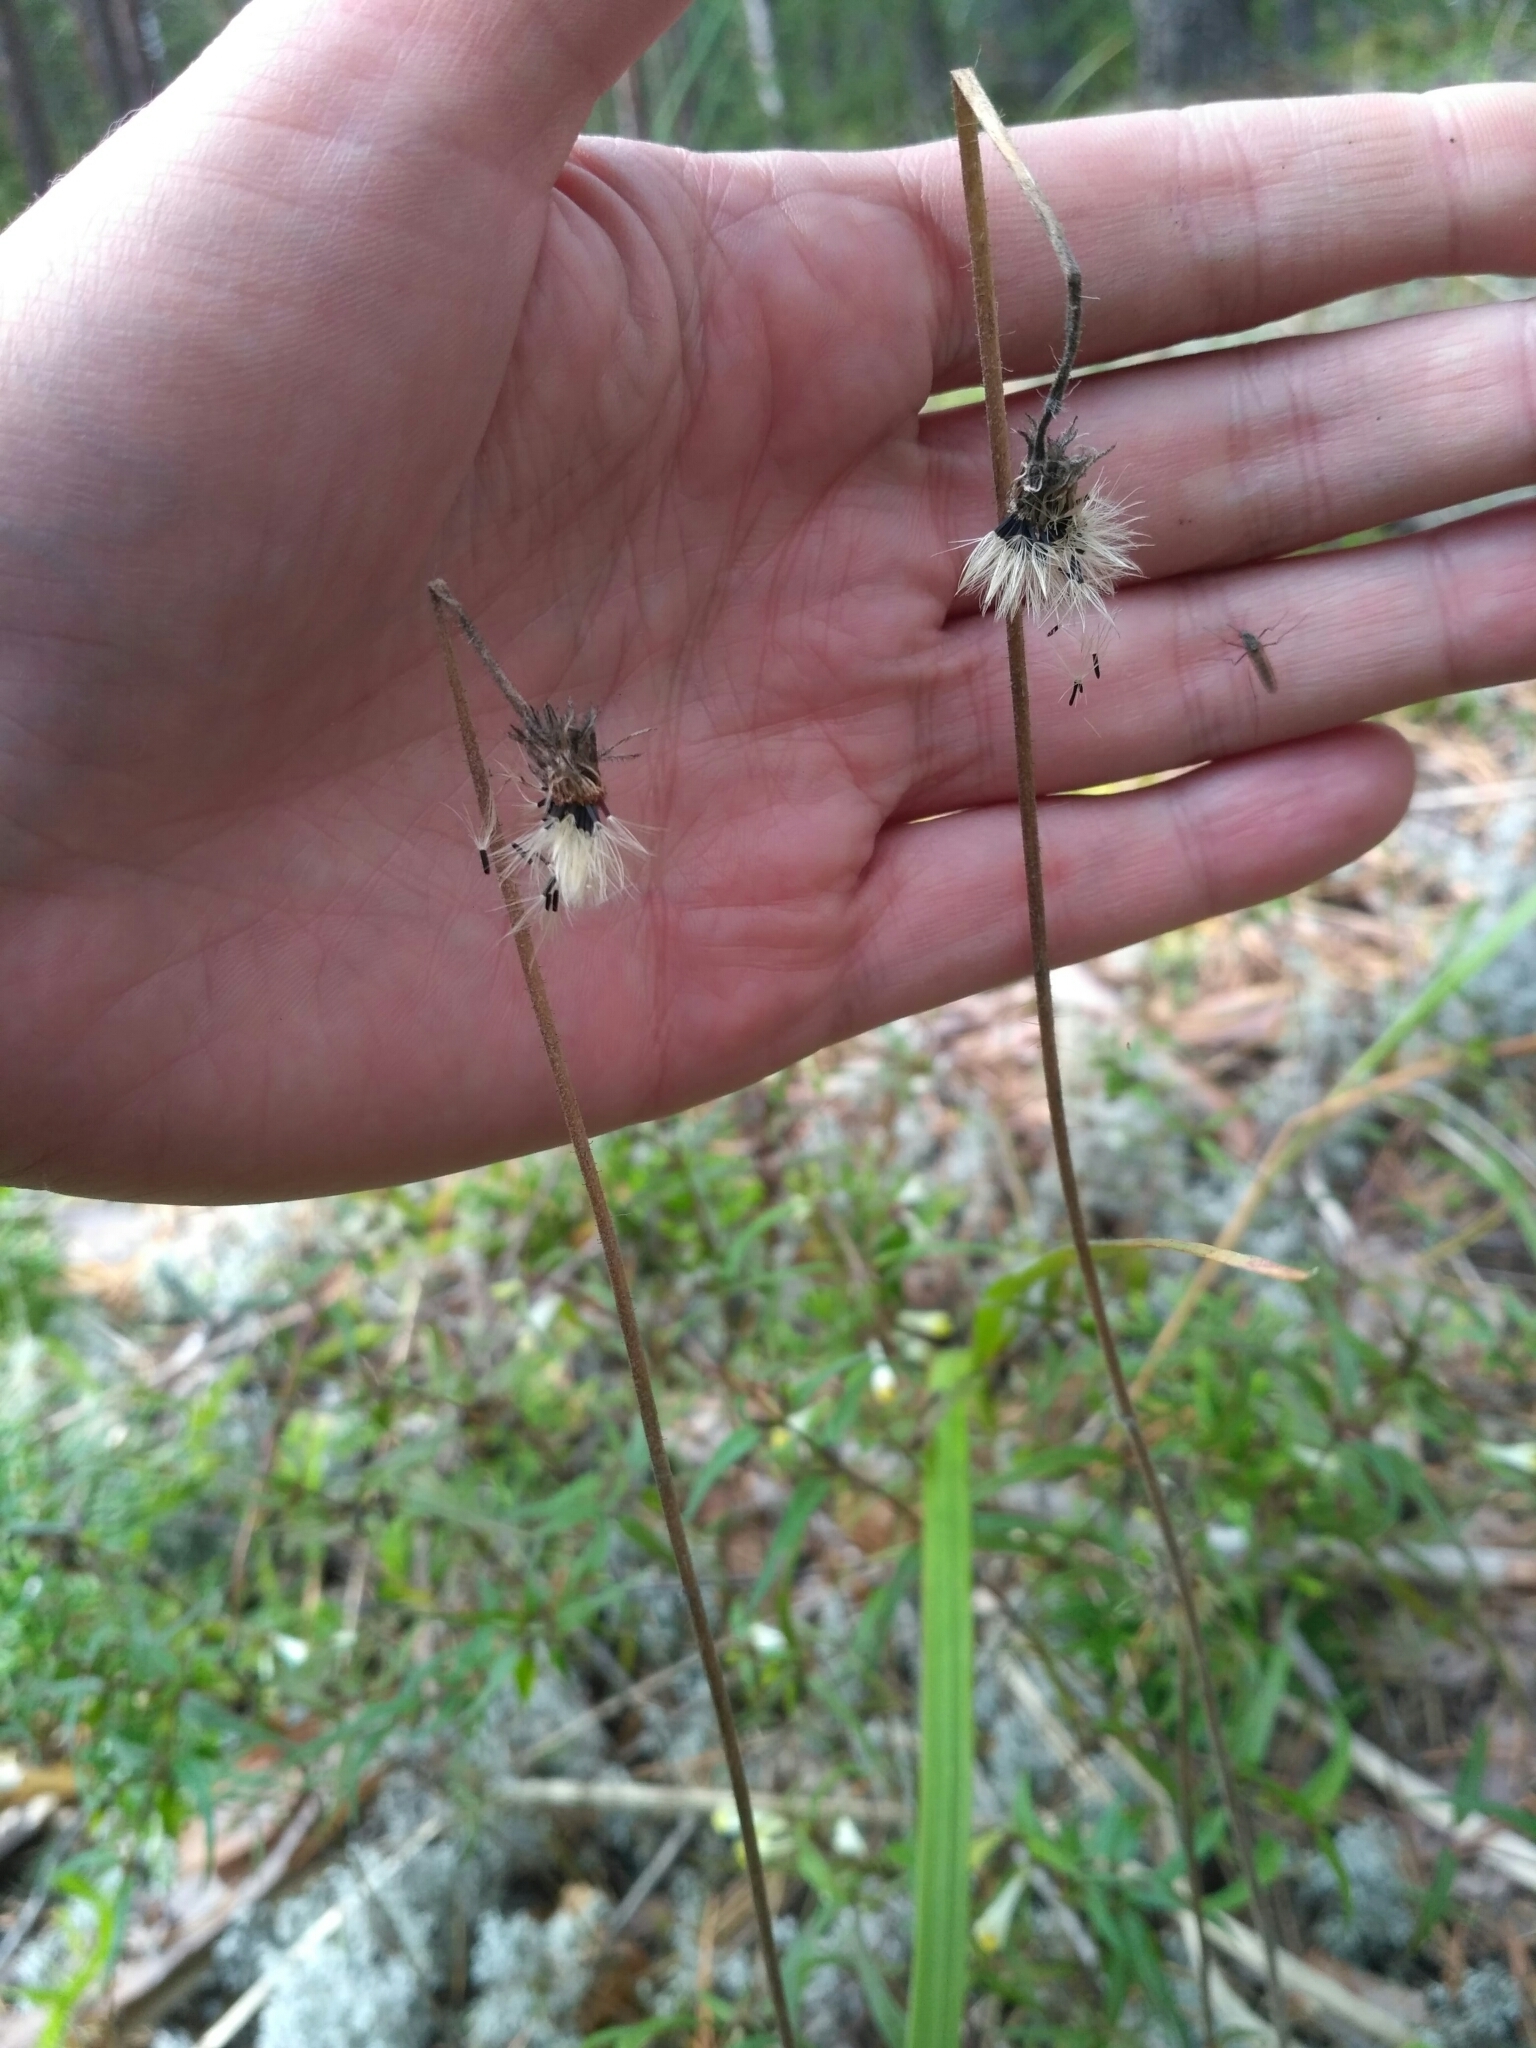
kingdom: Plantae
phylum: Tracheophyta
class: Magnoliopsida
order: Asterales
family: Asteraceae
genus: Pilosella
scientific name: Pilosella officinarum
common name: Mouse-ear hawkweed
